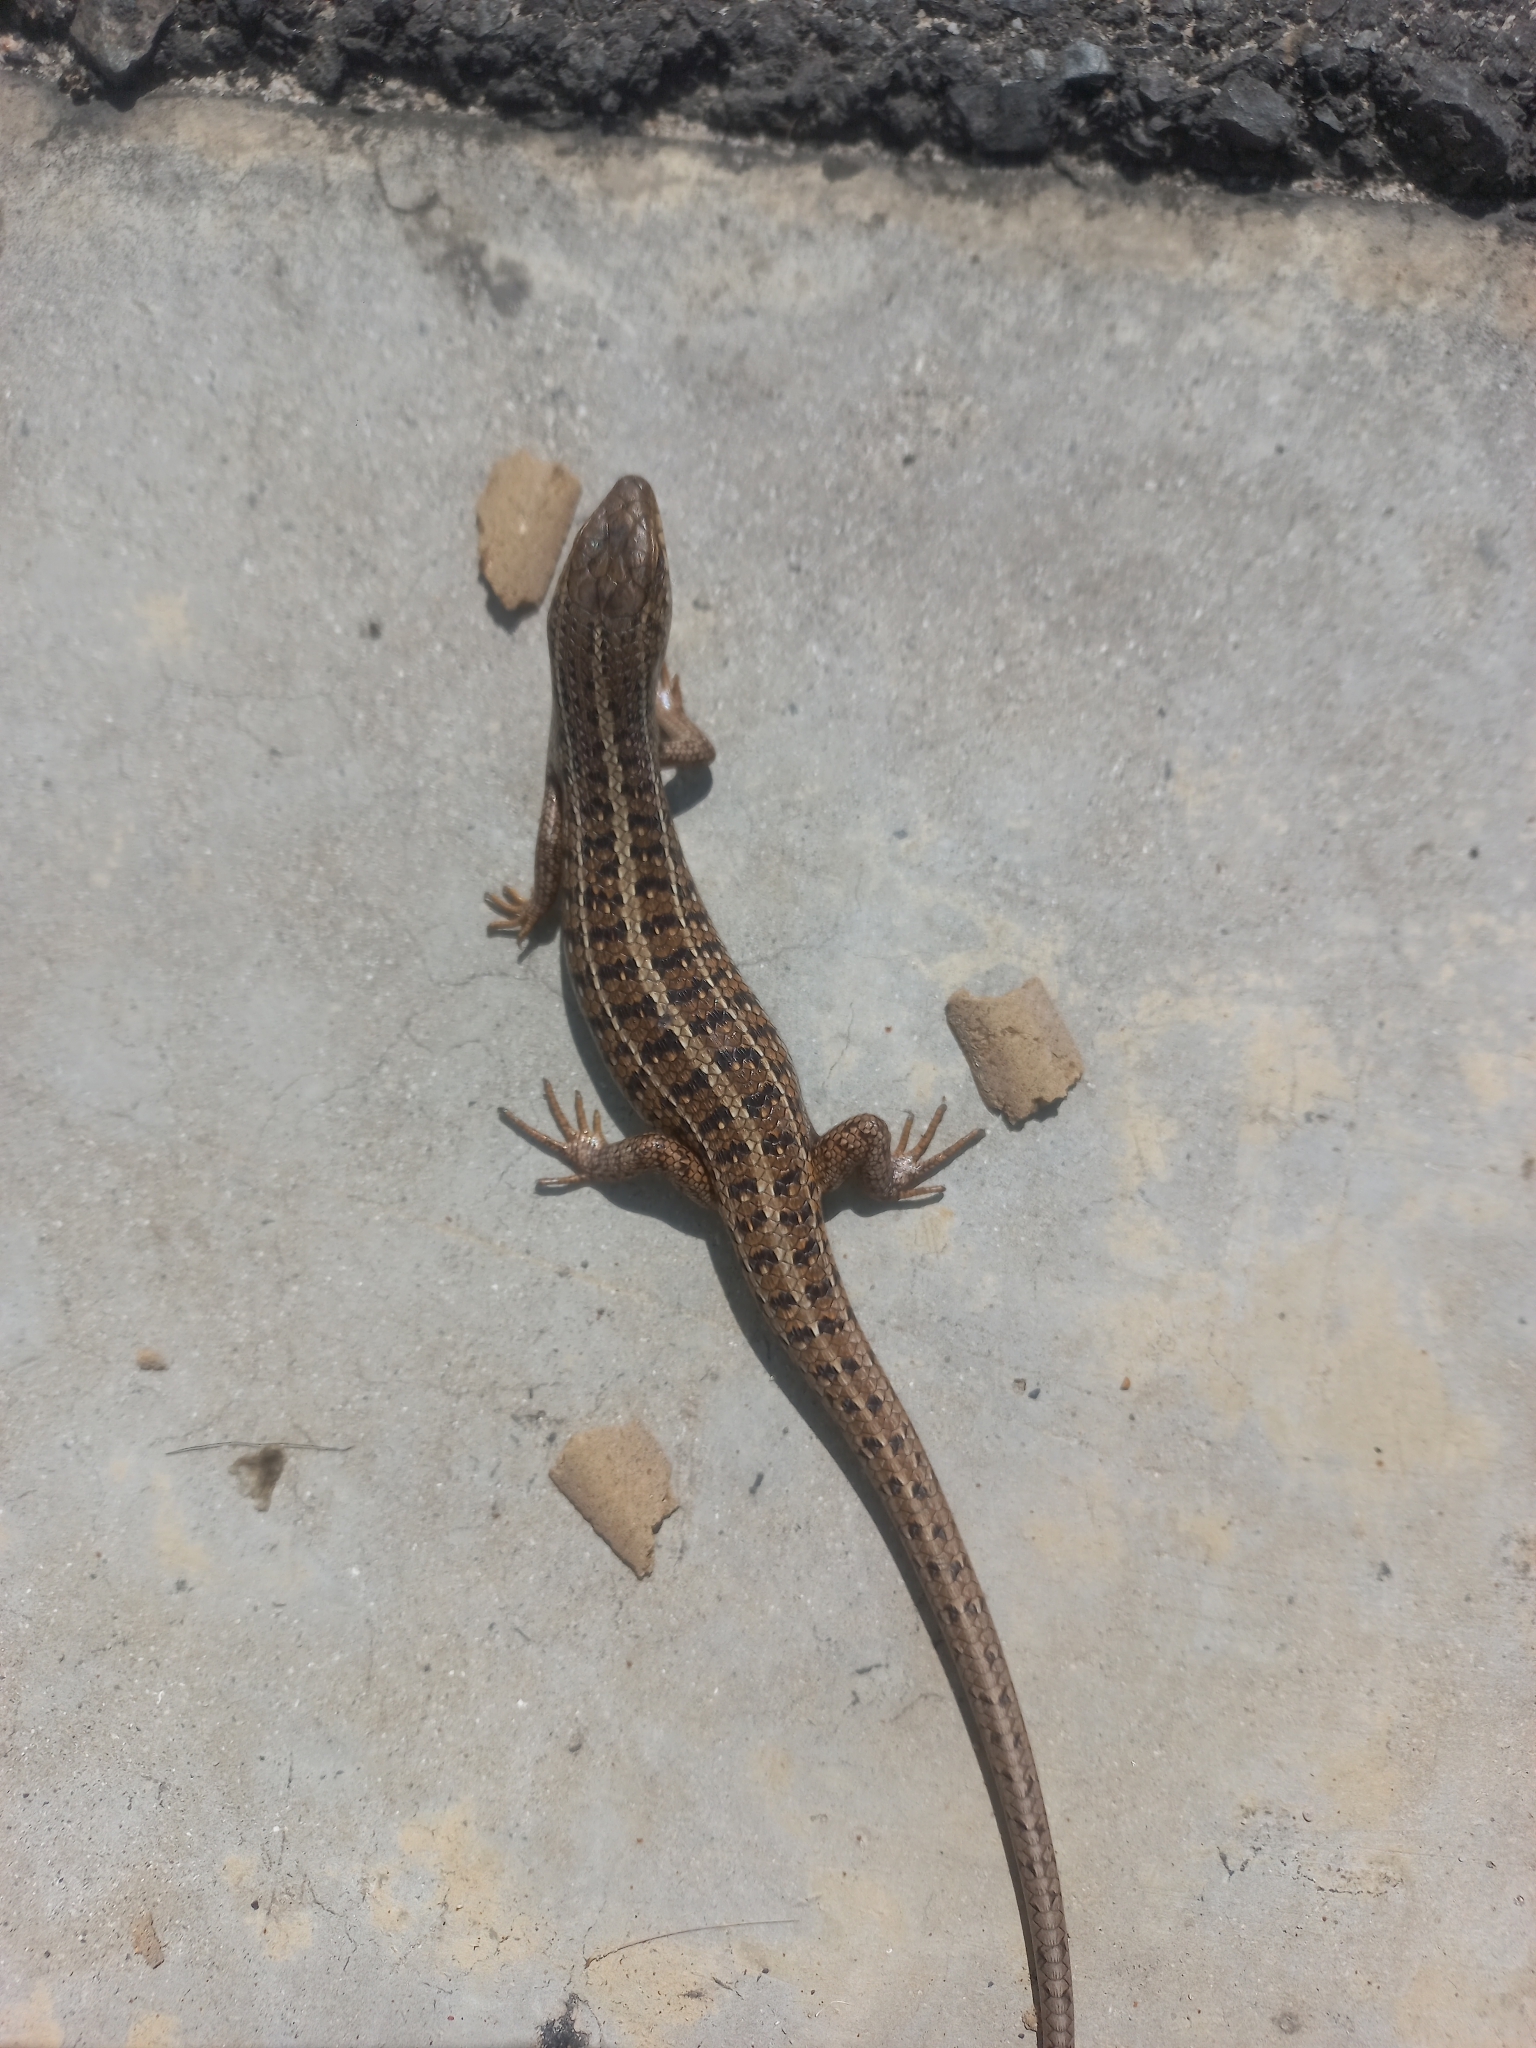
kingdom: Animalia
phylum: Chordata
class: Squamata
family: Scincidae
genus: Trachylepis
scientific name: Trachylepis capensis
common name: Cape skink
